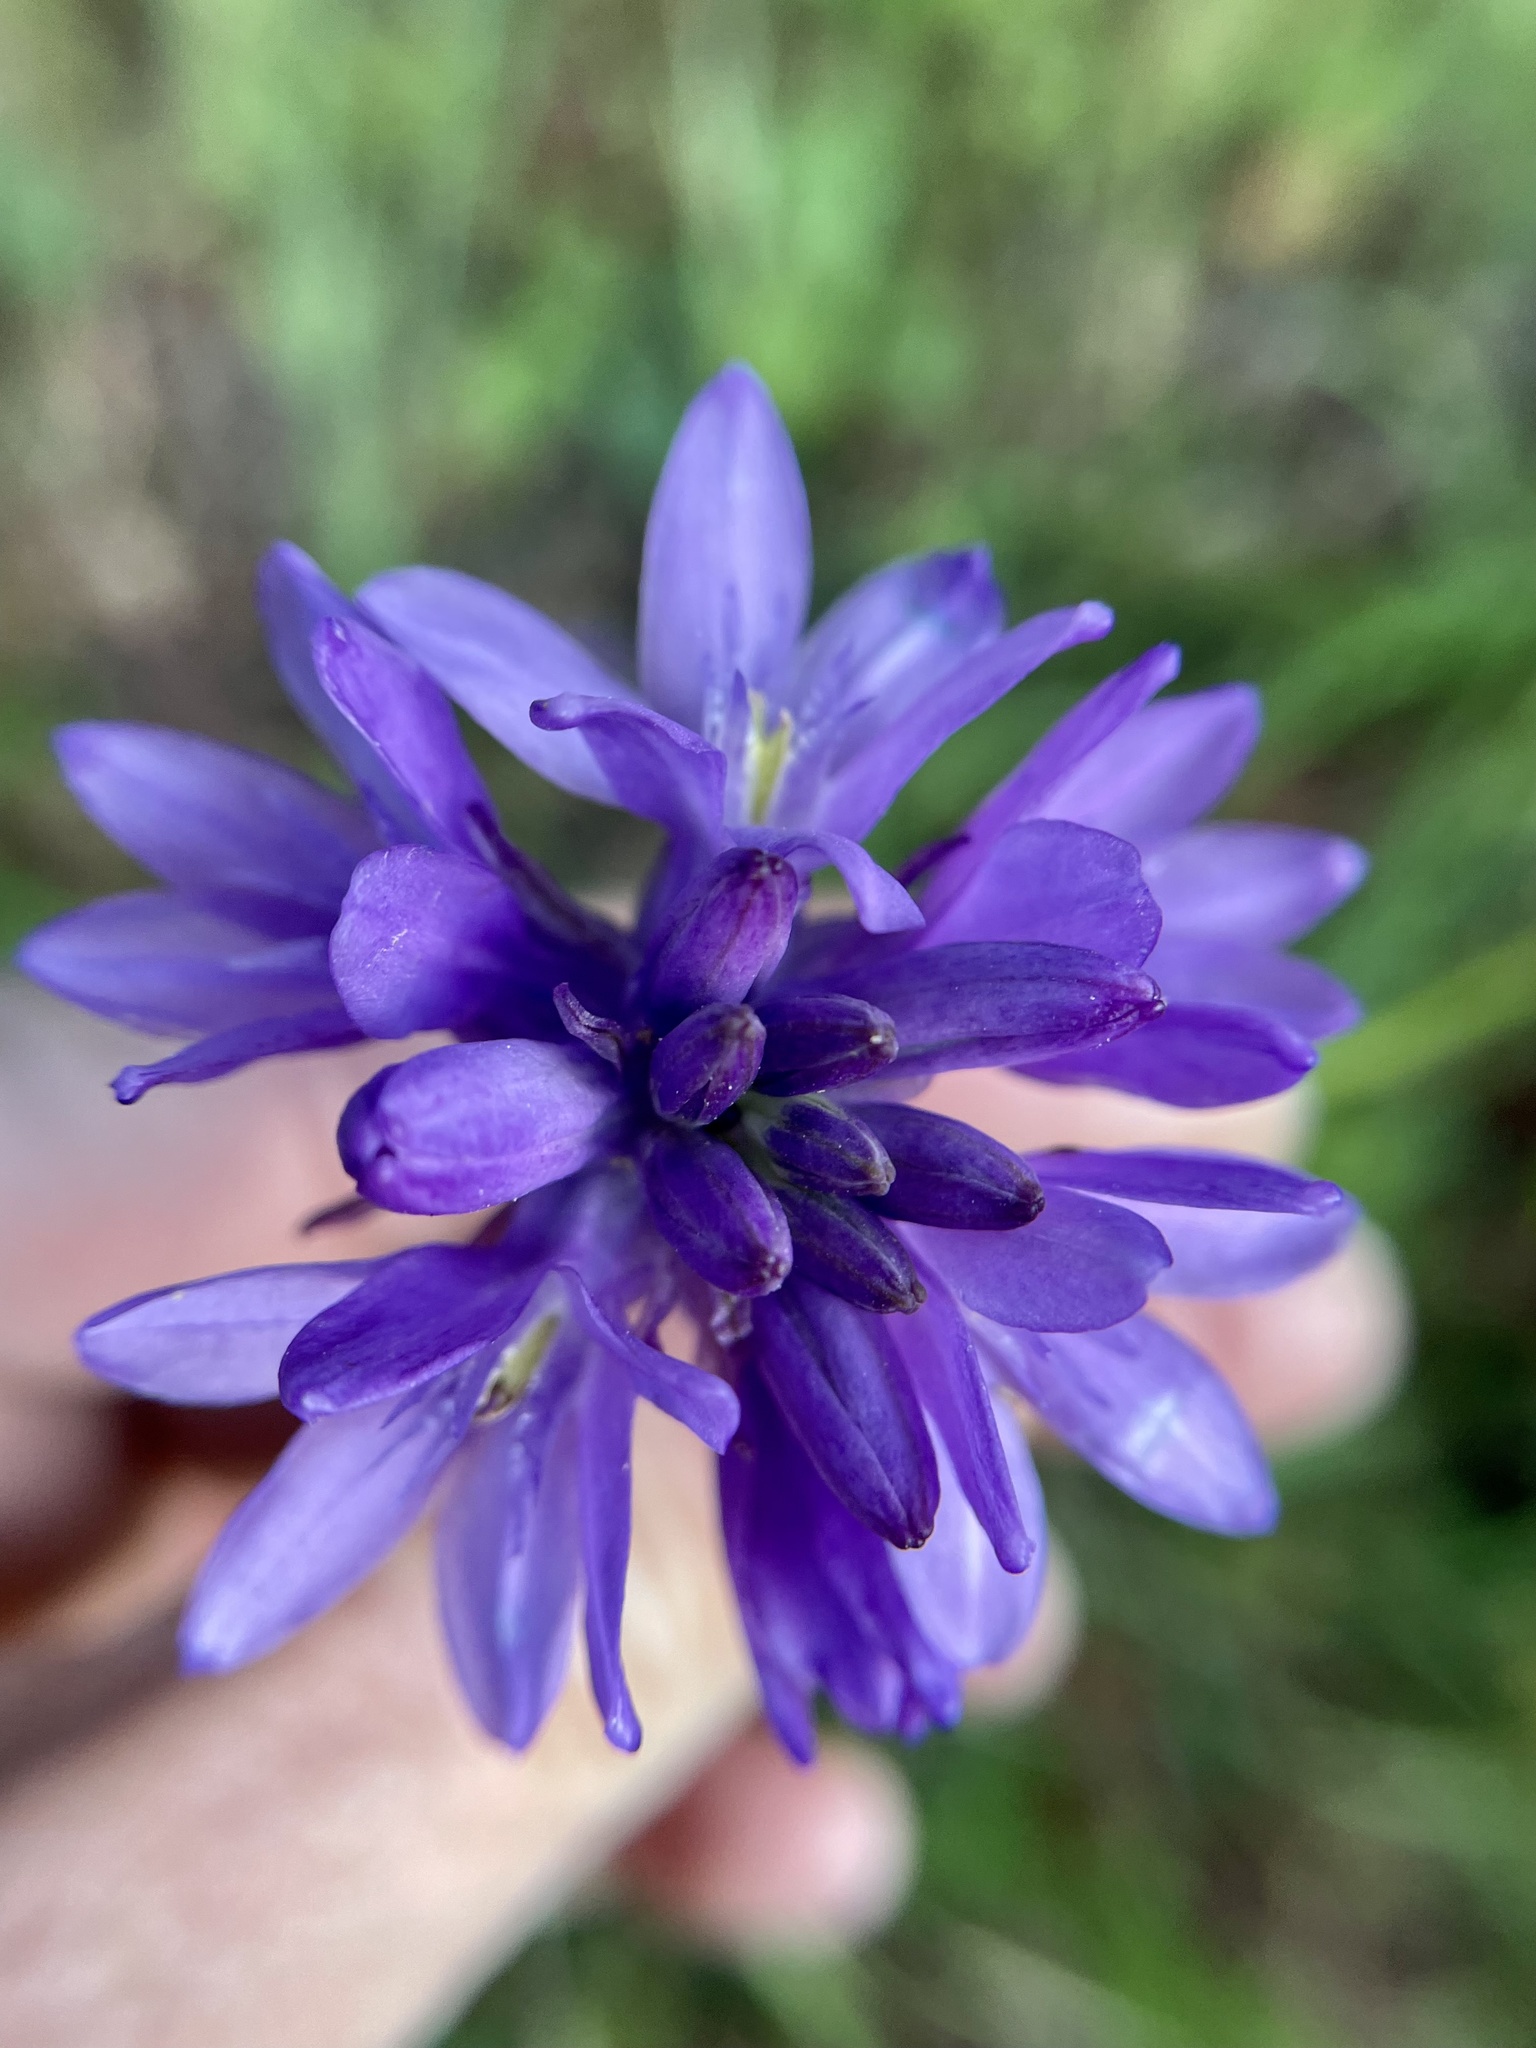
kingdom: Plantae
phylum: Tracheophyta
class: Liliopsida
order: Asparagales
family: Asparagaceae
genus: Dichelostemma
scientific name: Dichelostemma congestum
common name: Fork-tooth ookow
